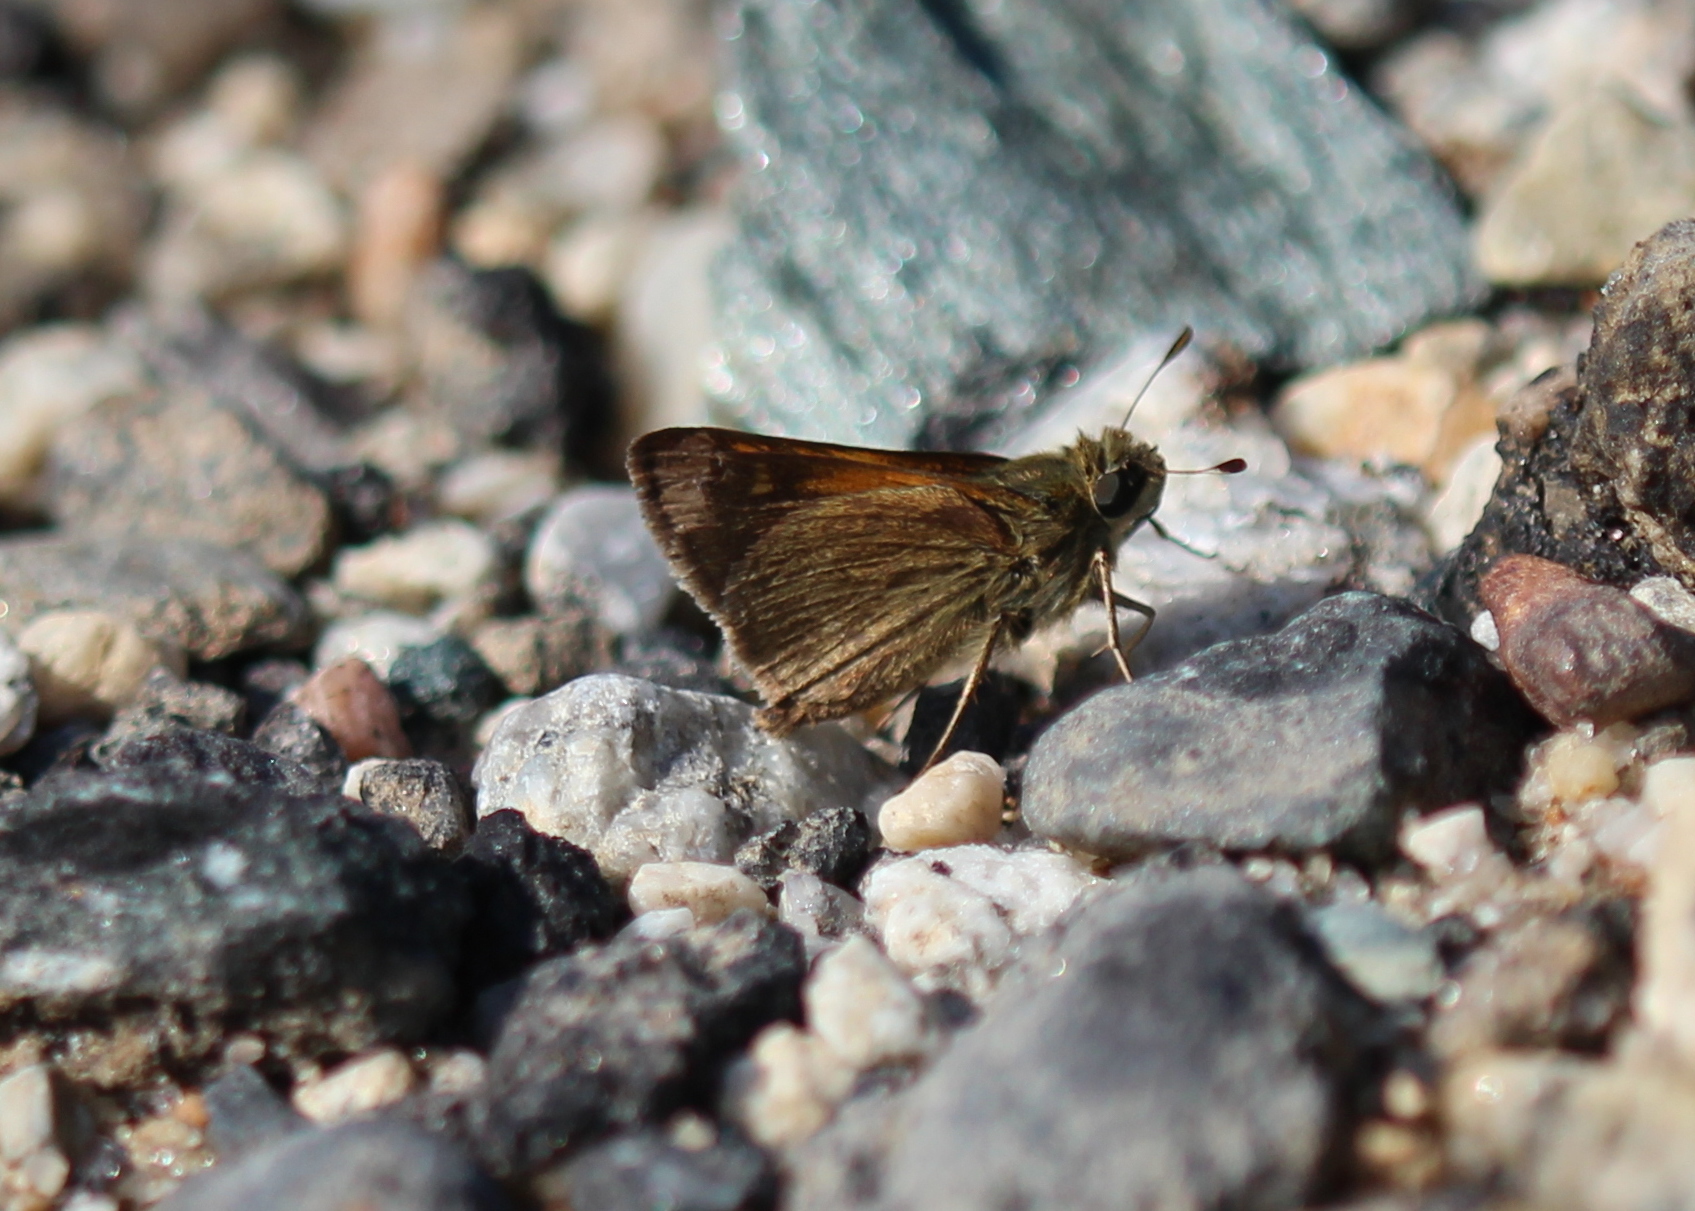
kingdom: Animalia
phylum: Arthropoda
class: Insecta
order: Lepidoptera
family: Hesperiidae
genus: Polites
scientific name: Polites themistocles
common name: Tawny-edged skipper
